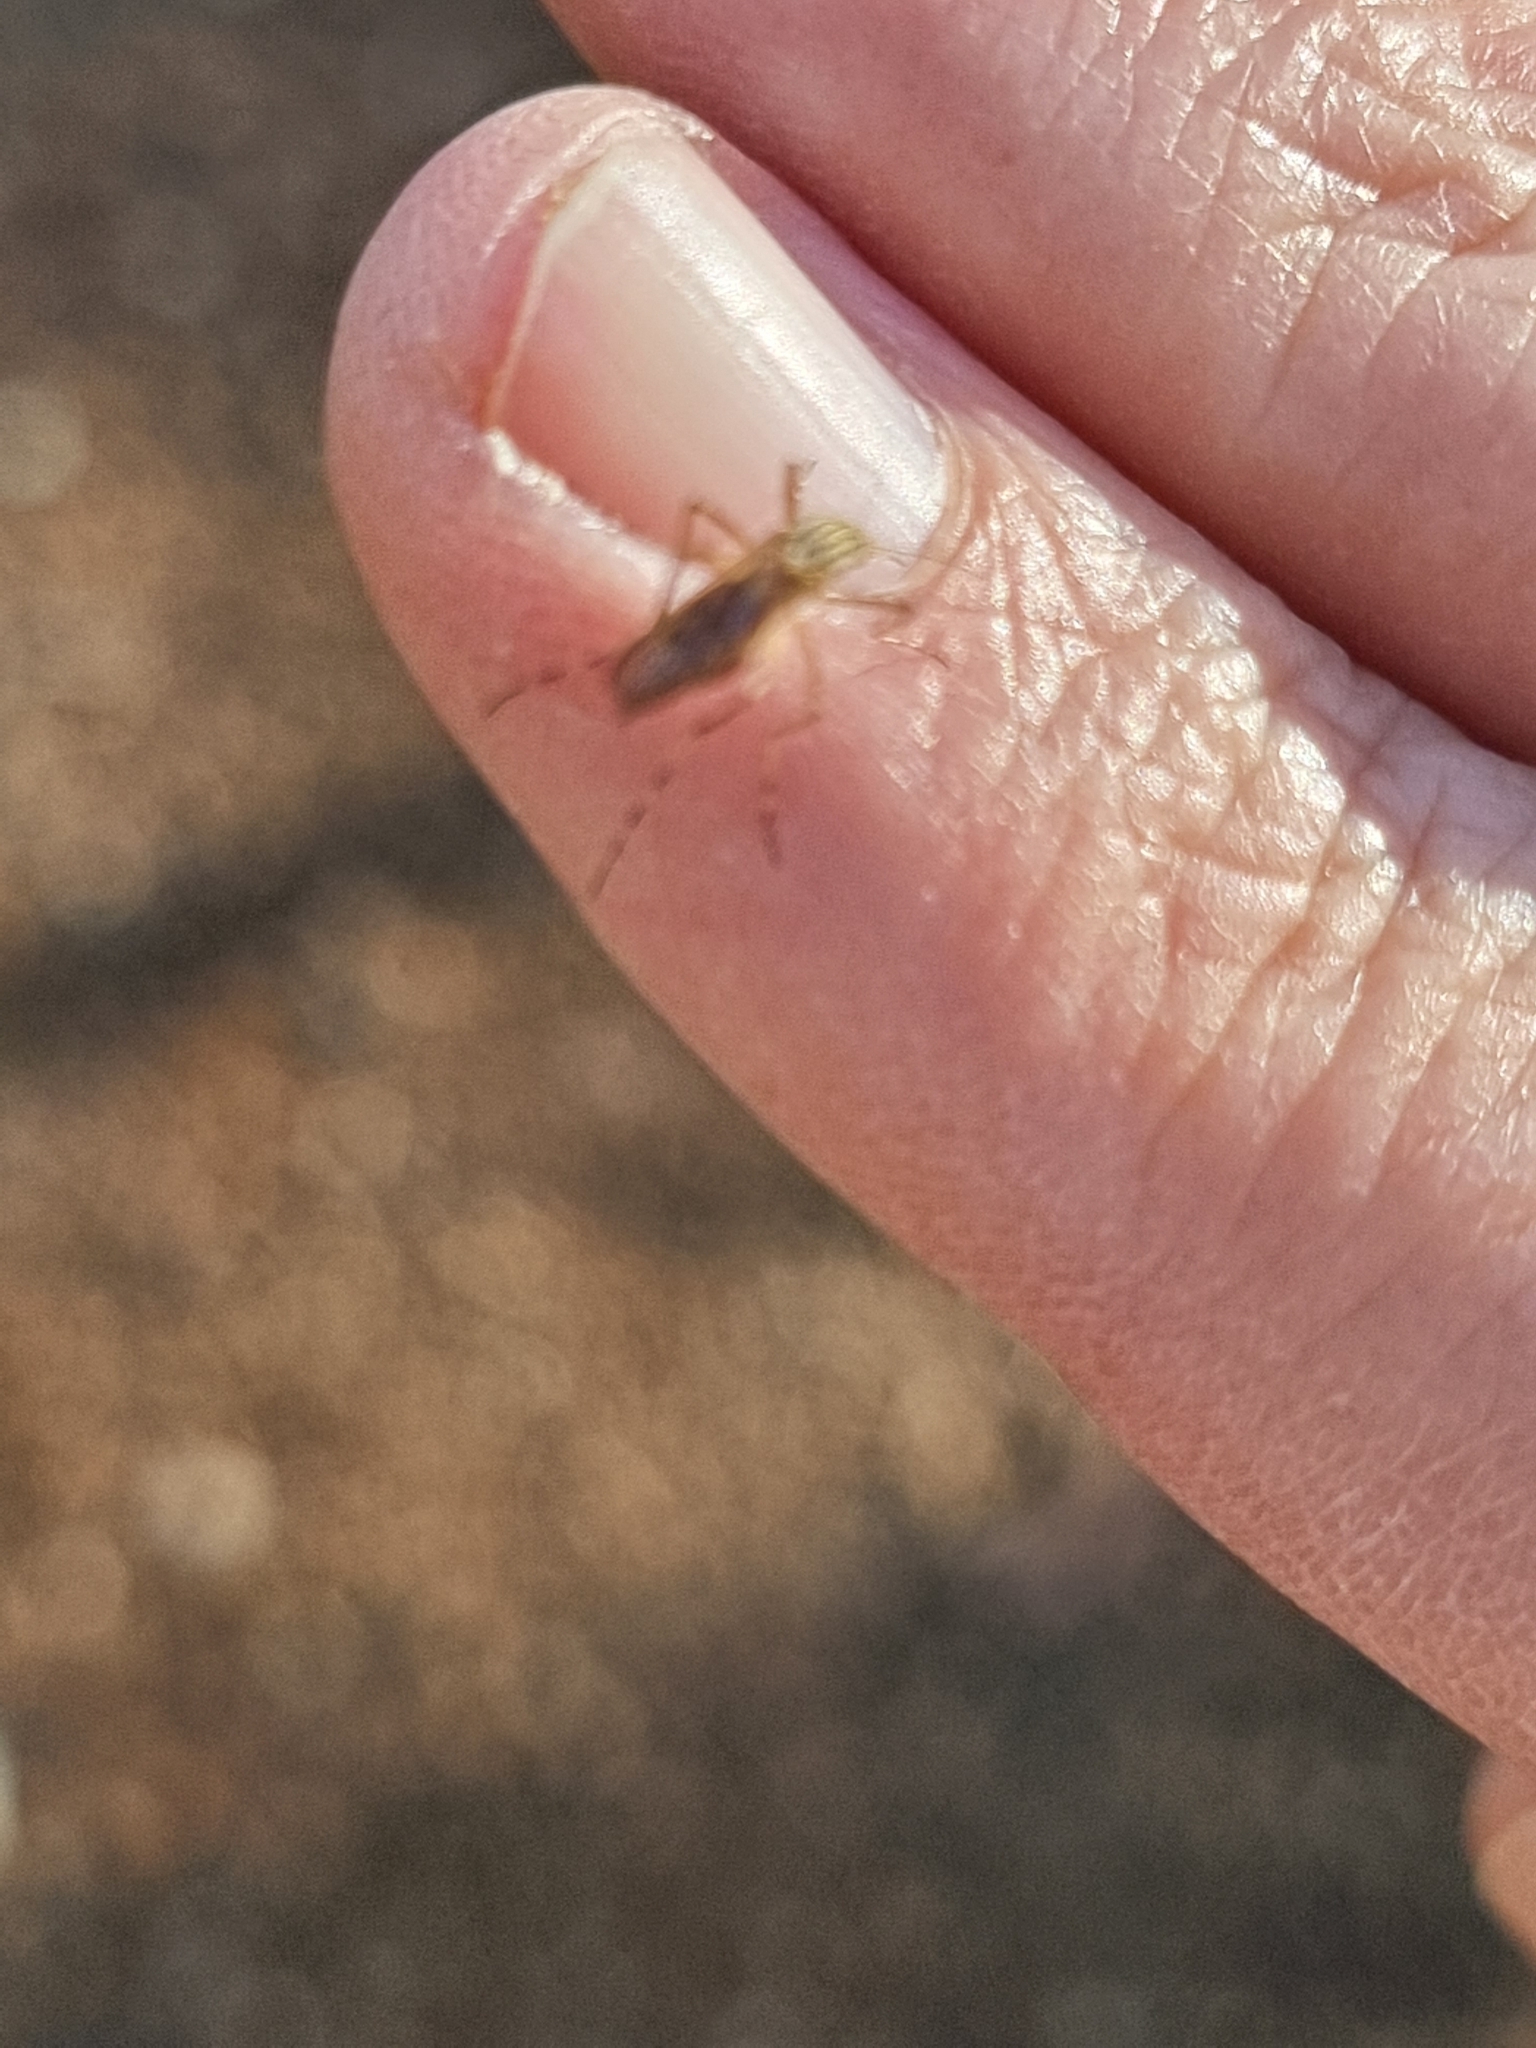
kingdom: Animalia
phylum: Arthropoda
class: Insecta
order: Diptera
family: Culicidae
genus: Aedes
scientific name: Aedes vittiger
